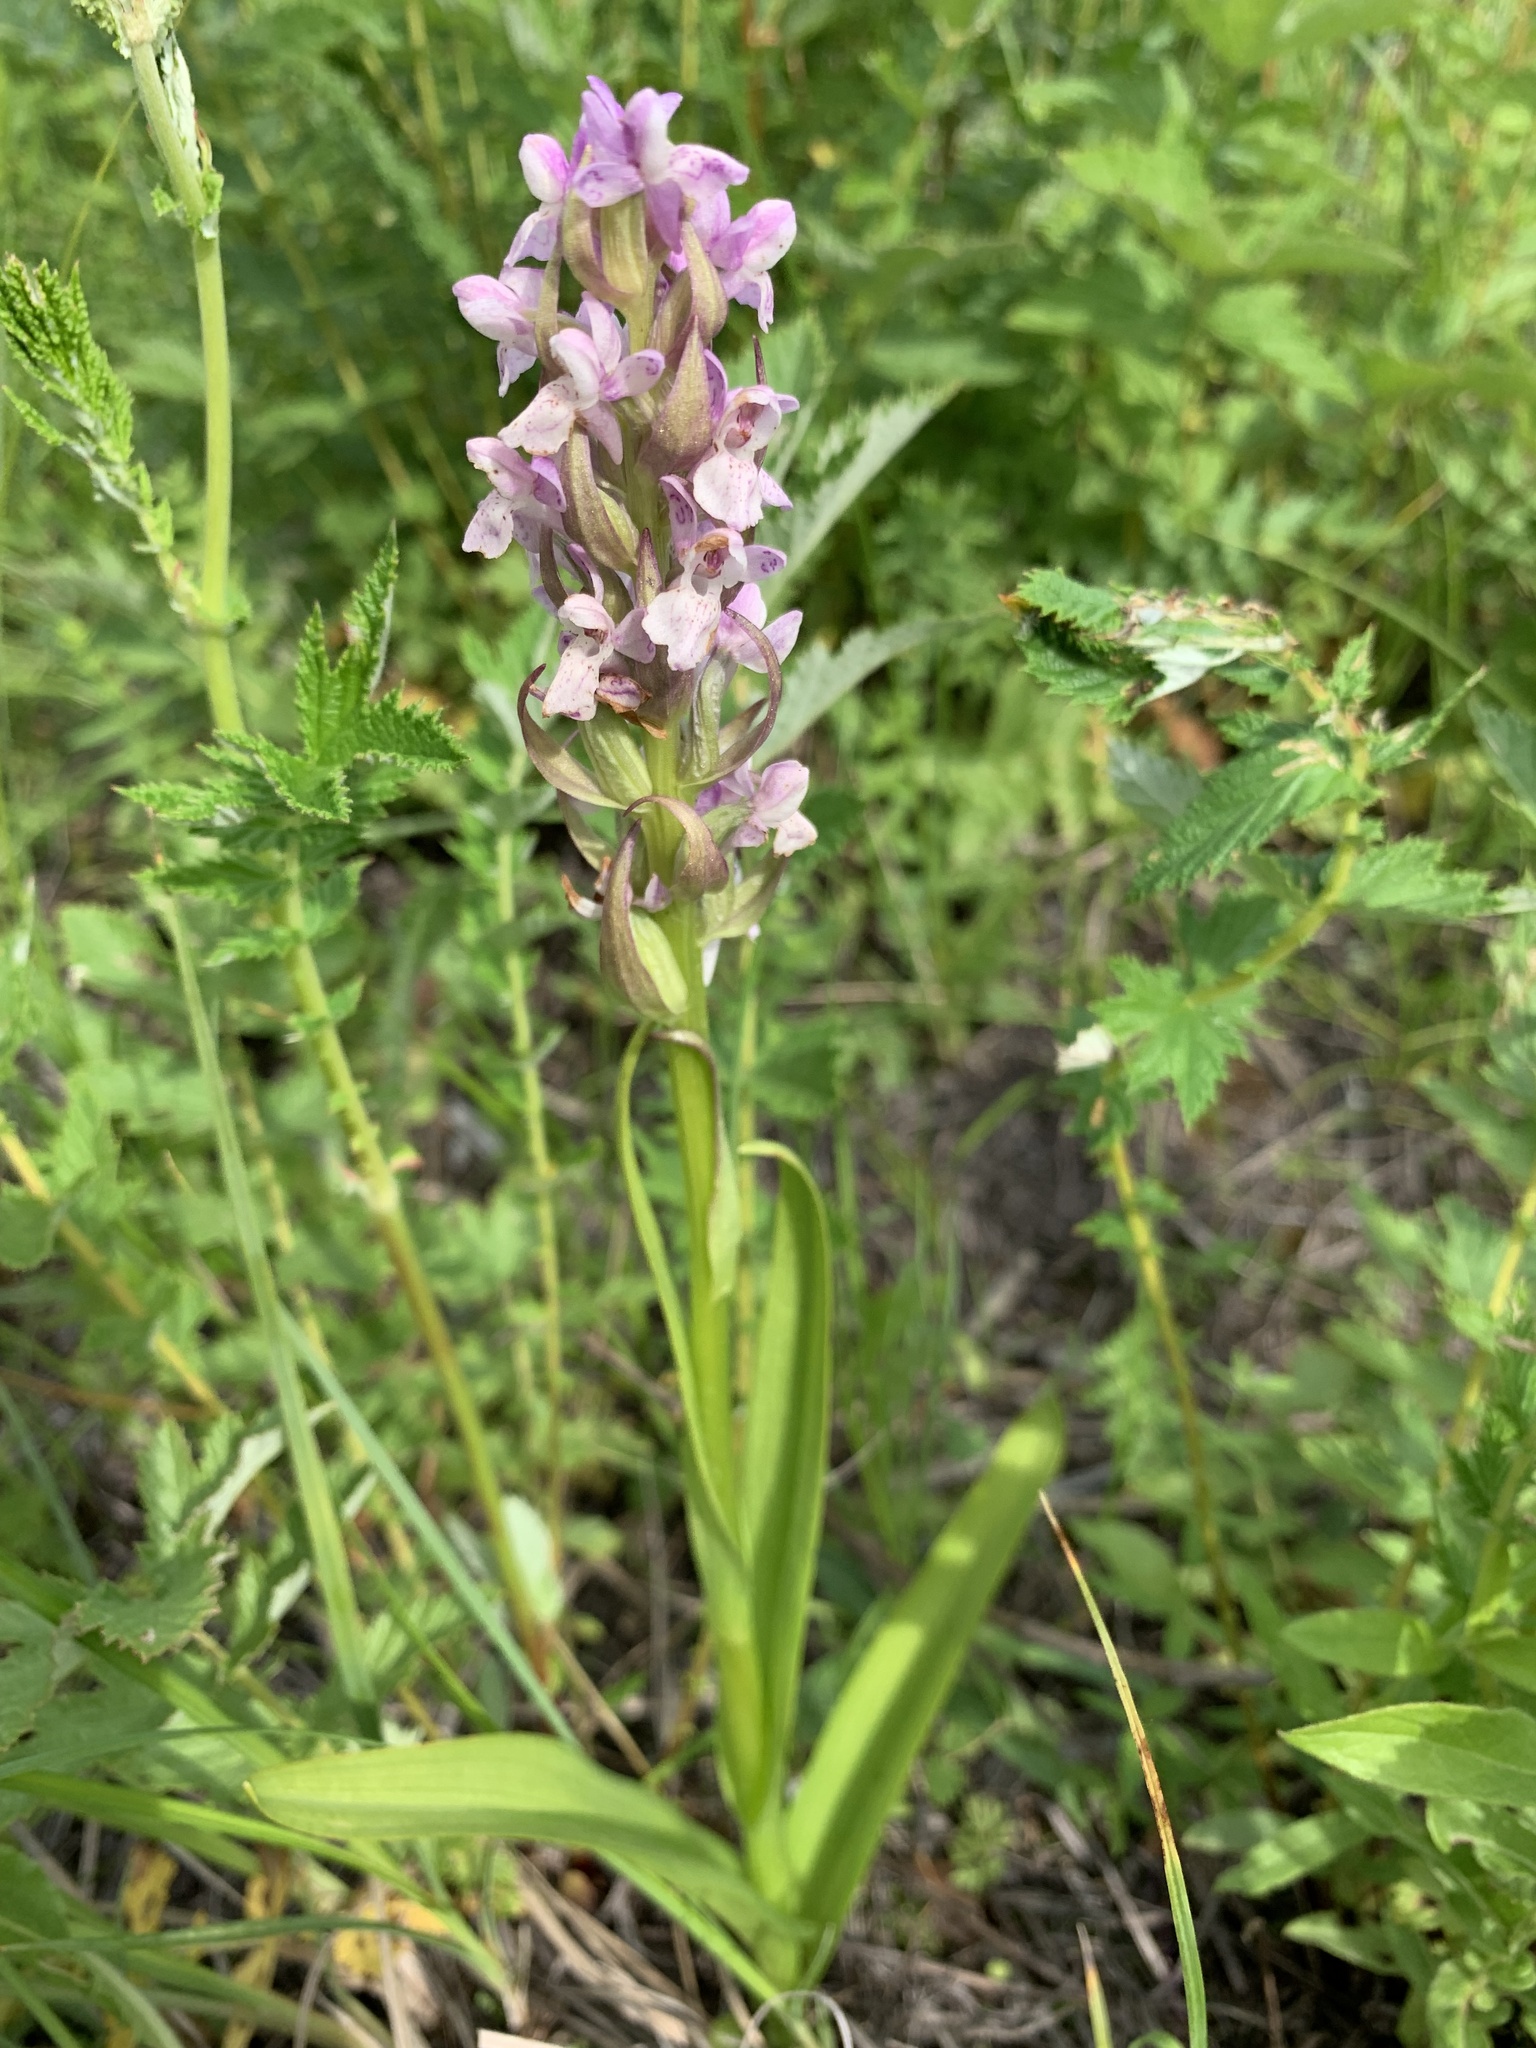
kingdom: Plantae
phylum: Tracheophyta
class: Liliopsida
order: Asparagales
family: Orchidaceae
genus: Dactylorhiza
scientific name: Dactylorhiza incarnata
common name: Early marsh-orchid
